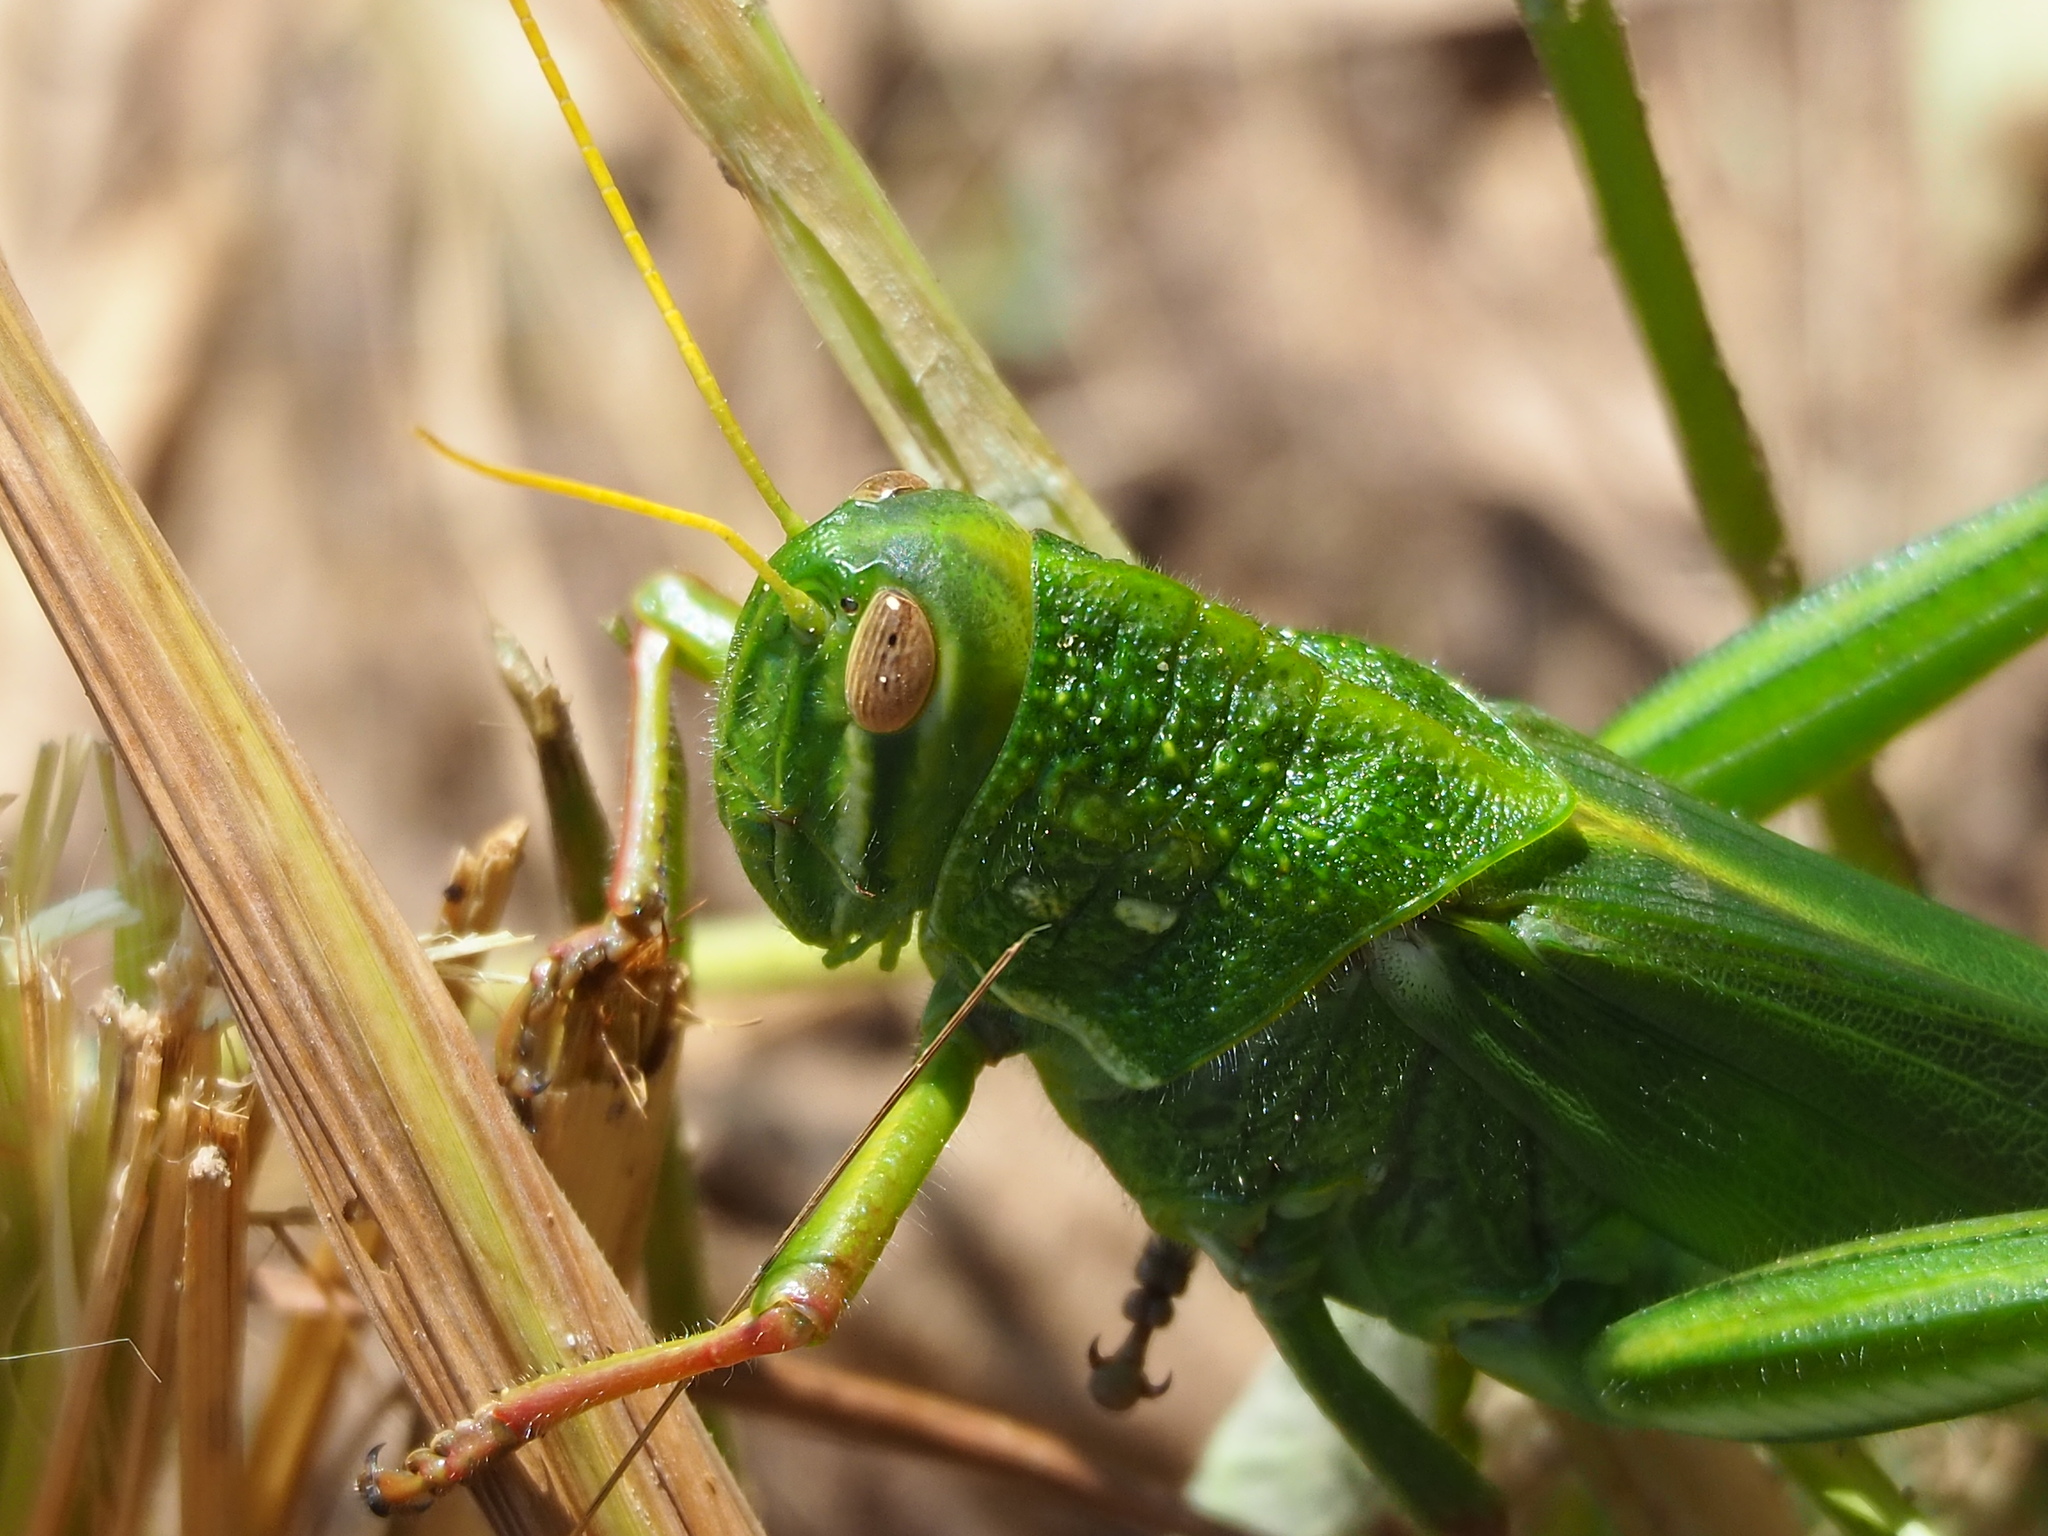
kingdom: Animalia
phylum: Arthropoda
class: Insecta
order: Orthoptera
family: Acrididae
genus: Chondracris
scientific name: Chondracris rosea
